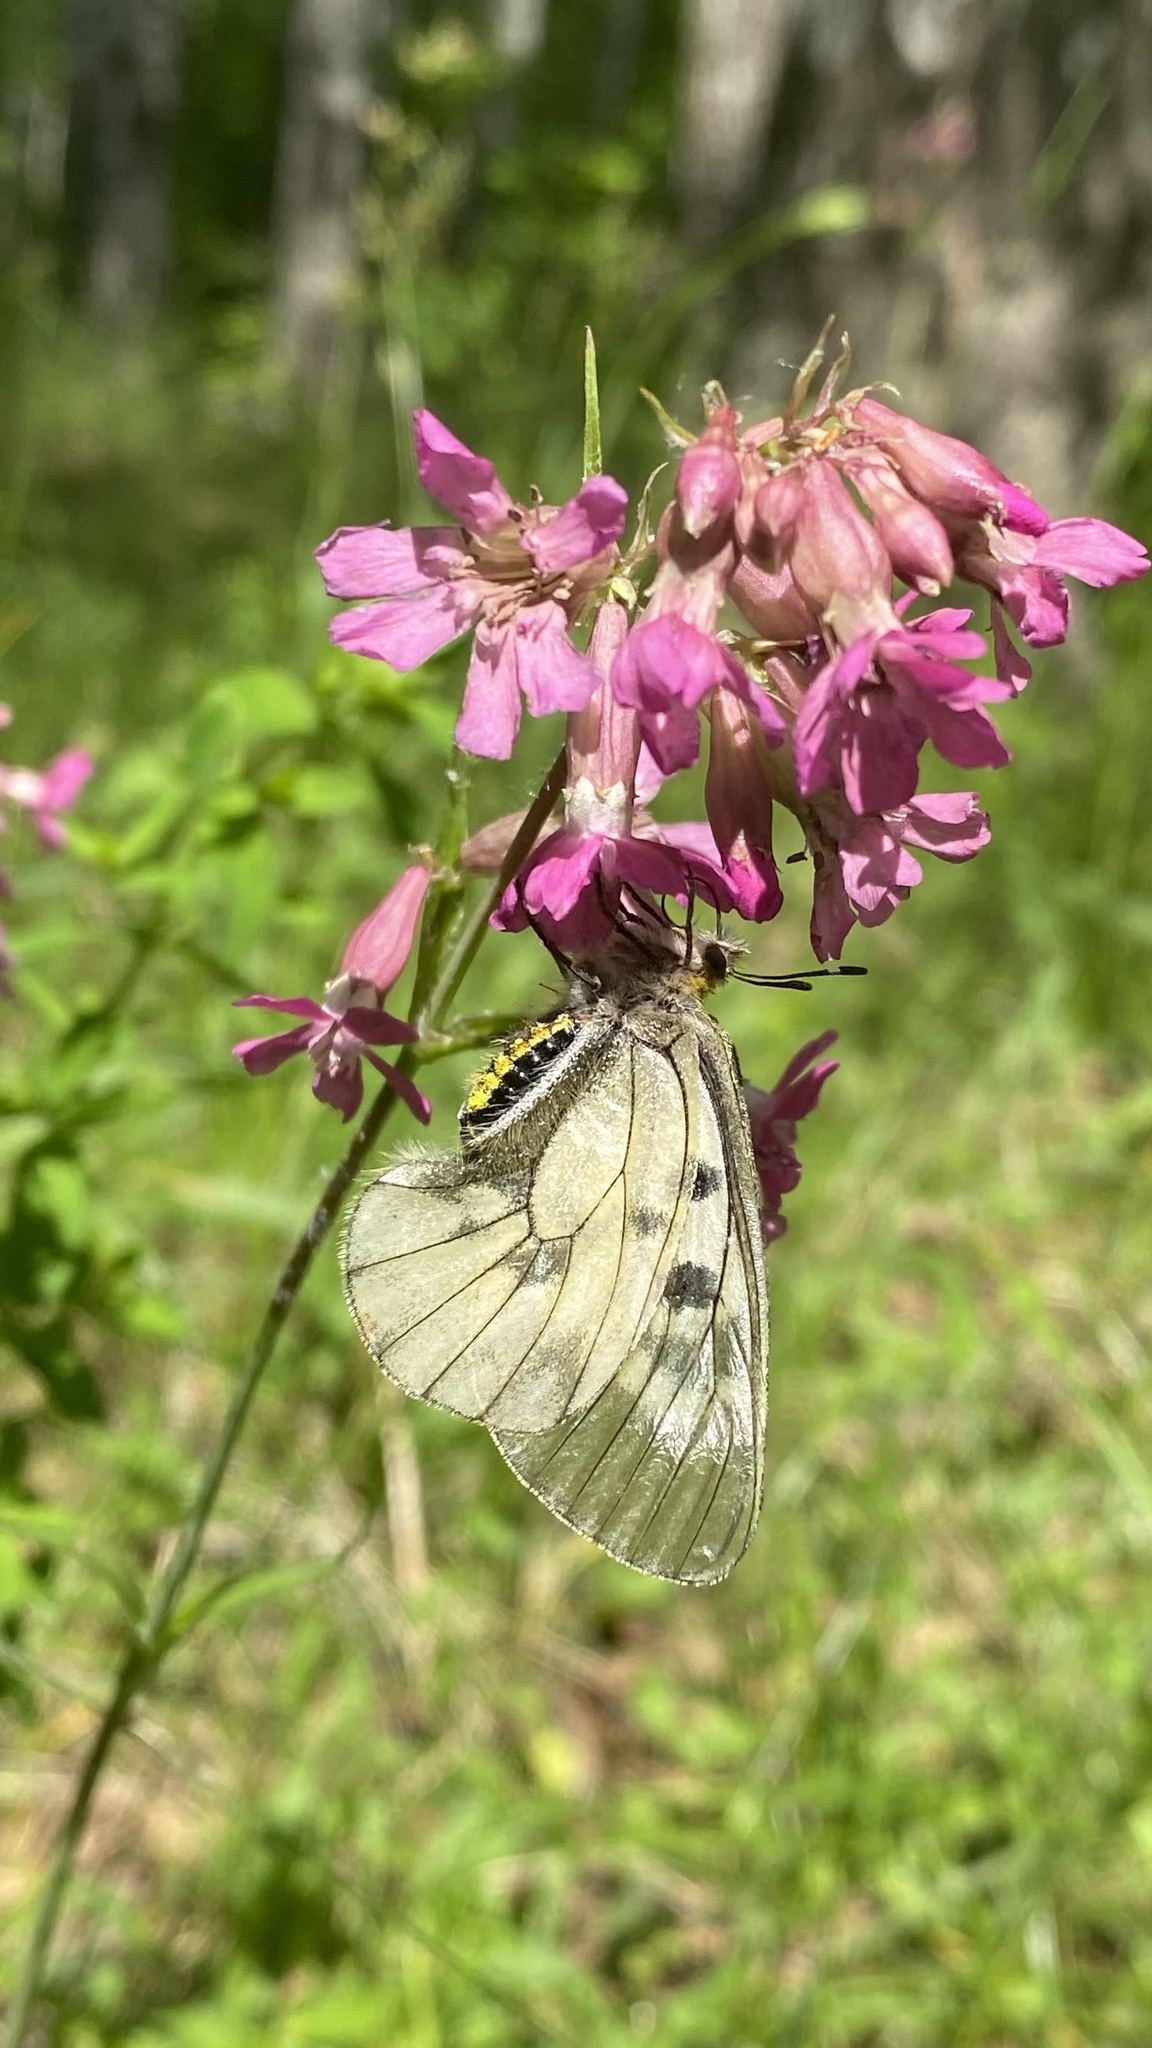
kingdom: Animalia
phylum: Arthropoda
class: Insecta
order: Lepidoptera
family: Papilionidae
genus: Parnassius
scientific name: Parnassius mnemosyne
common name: Clouded apollo
